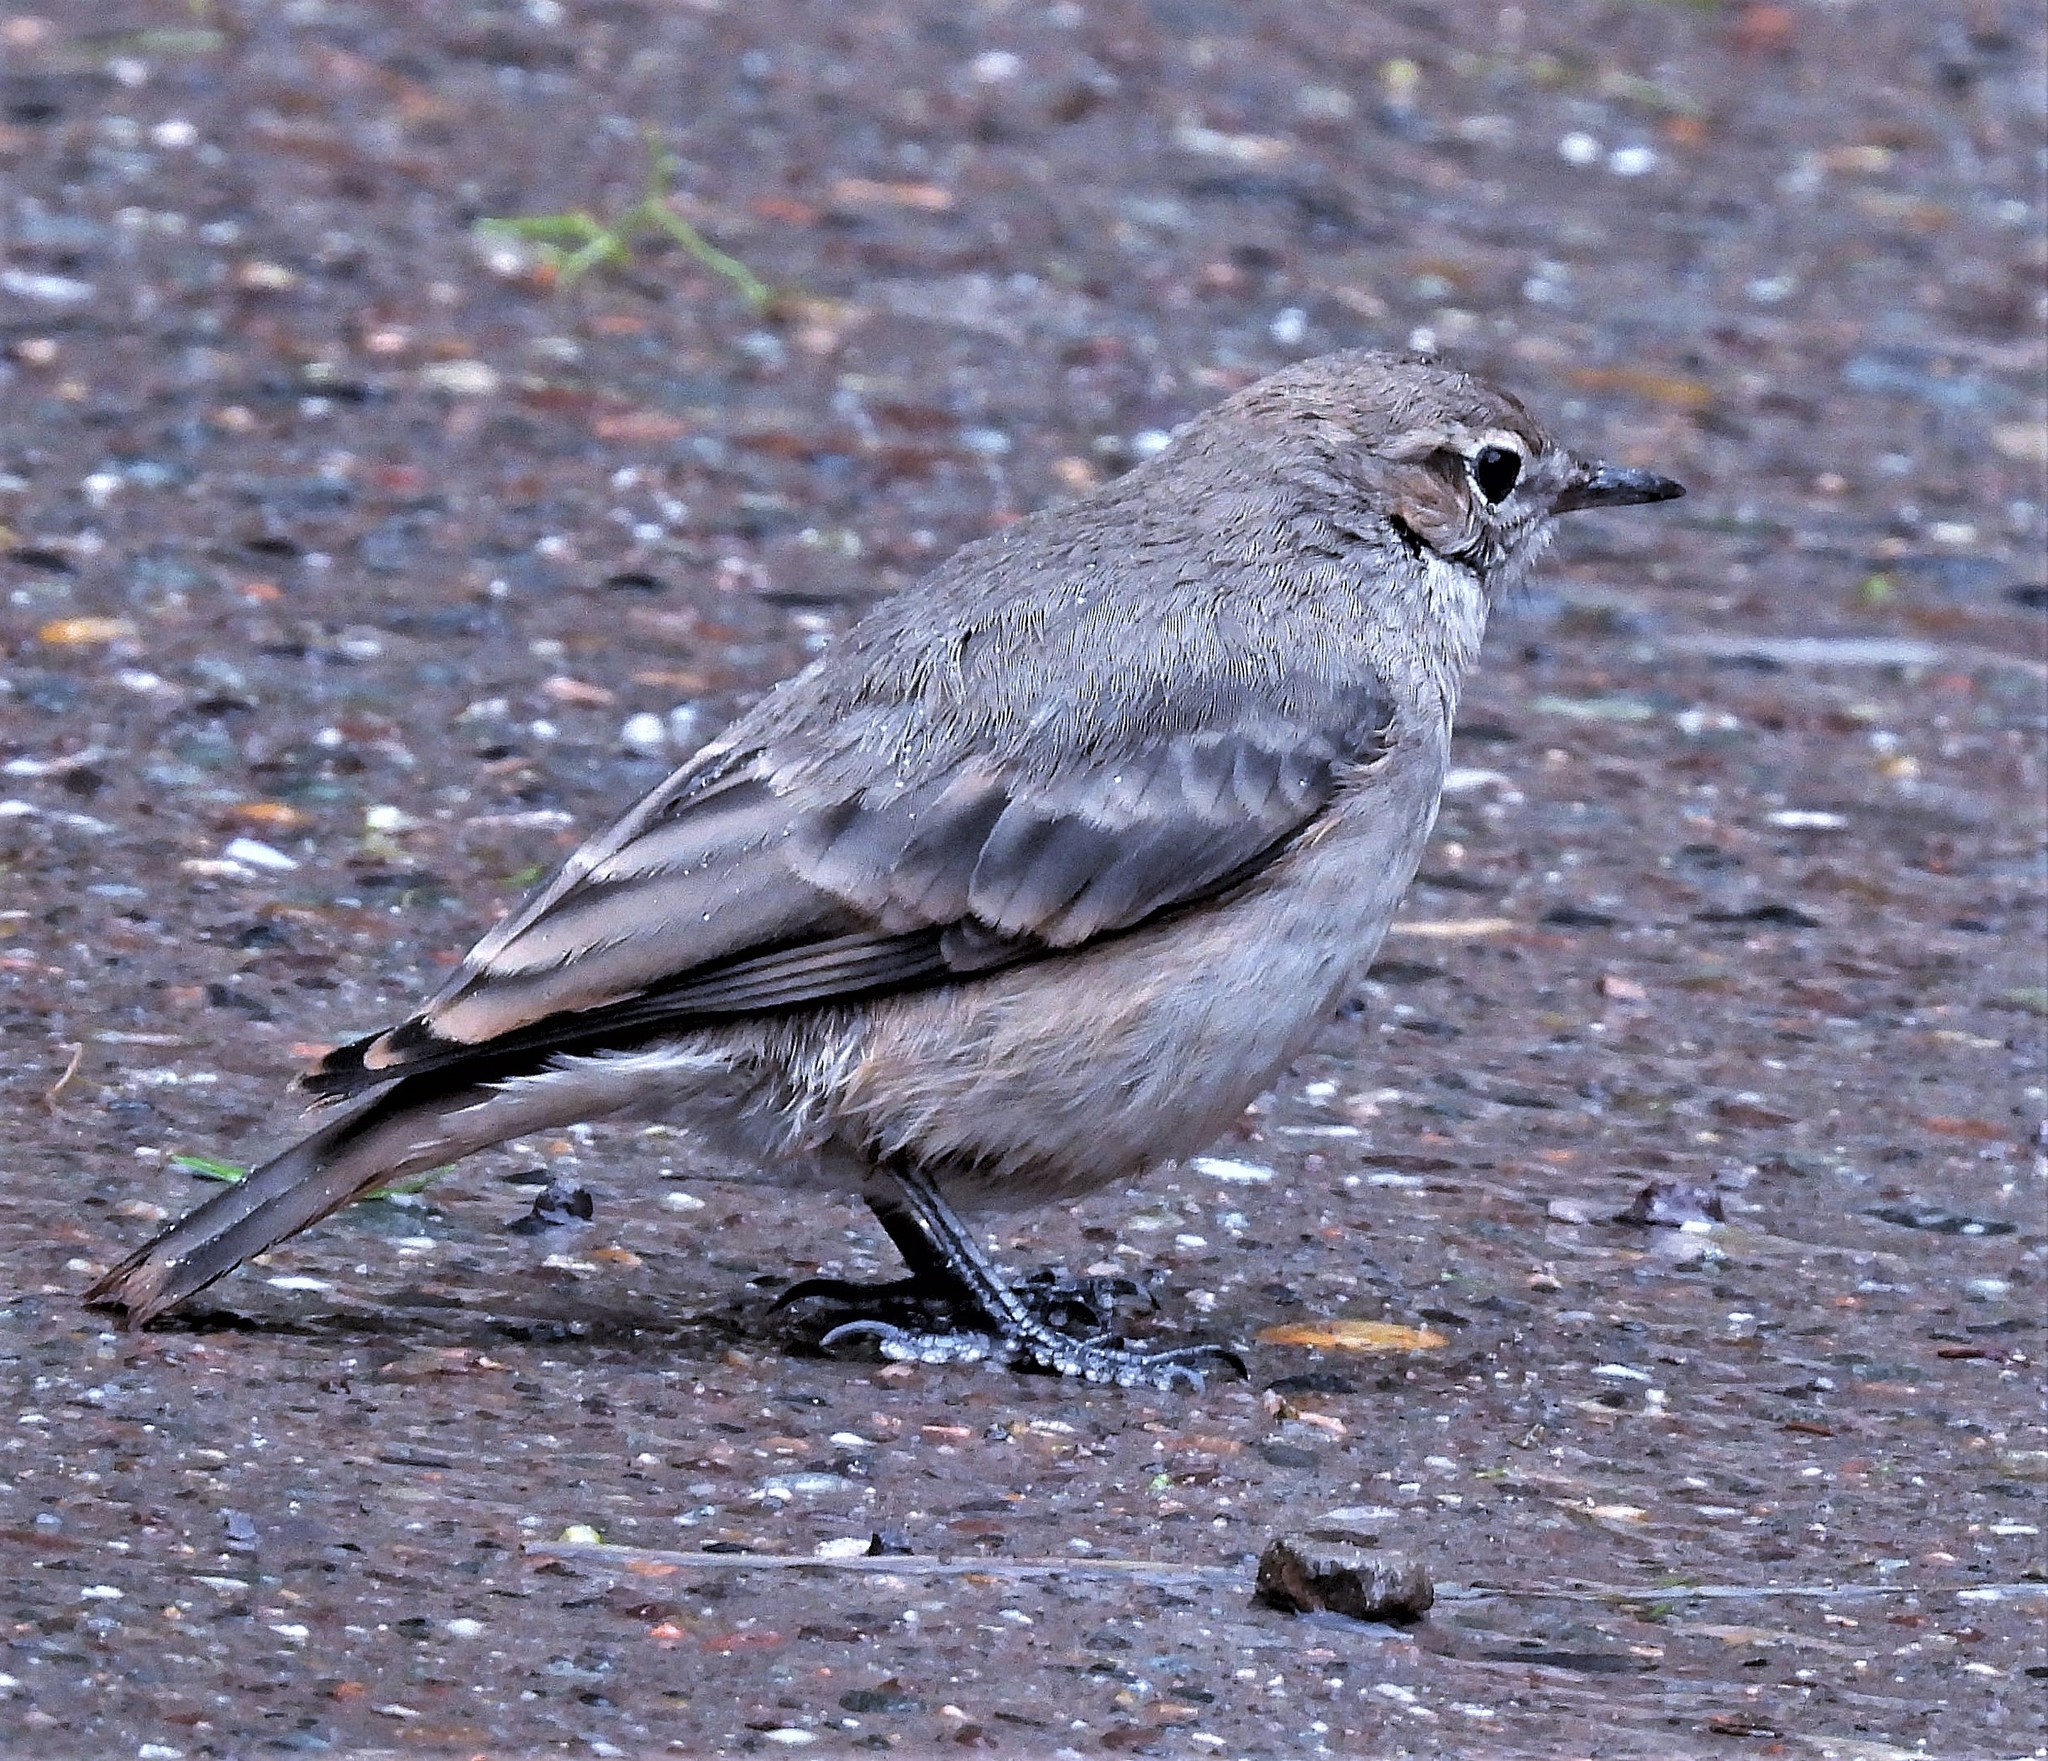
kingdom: Animalia
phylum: Chordata
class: Aves
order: Passeriformes
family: Furnariidae
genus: Geositta
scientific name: Geositta rufipennis
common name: Rufous-banded miner
